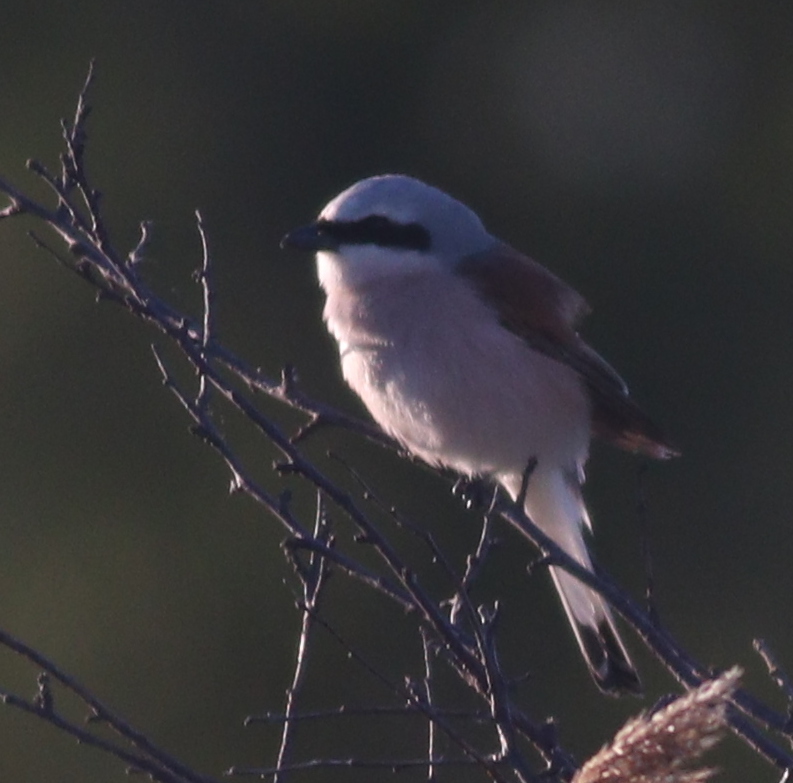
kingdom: Animalia
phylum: Chordata
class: Aves
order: Passeriformes
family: Laniidae
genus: Lanius
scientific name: Lanius collurio
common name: Red-backed shrike
